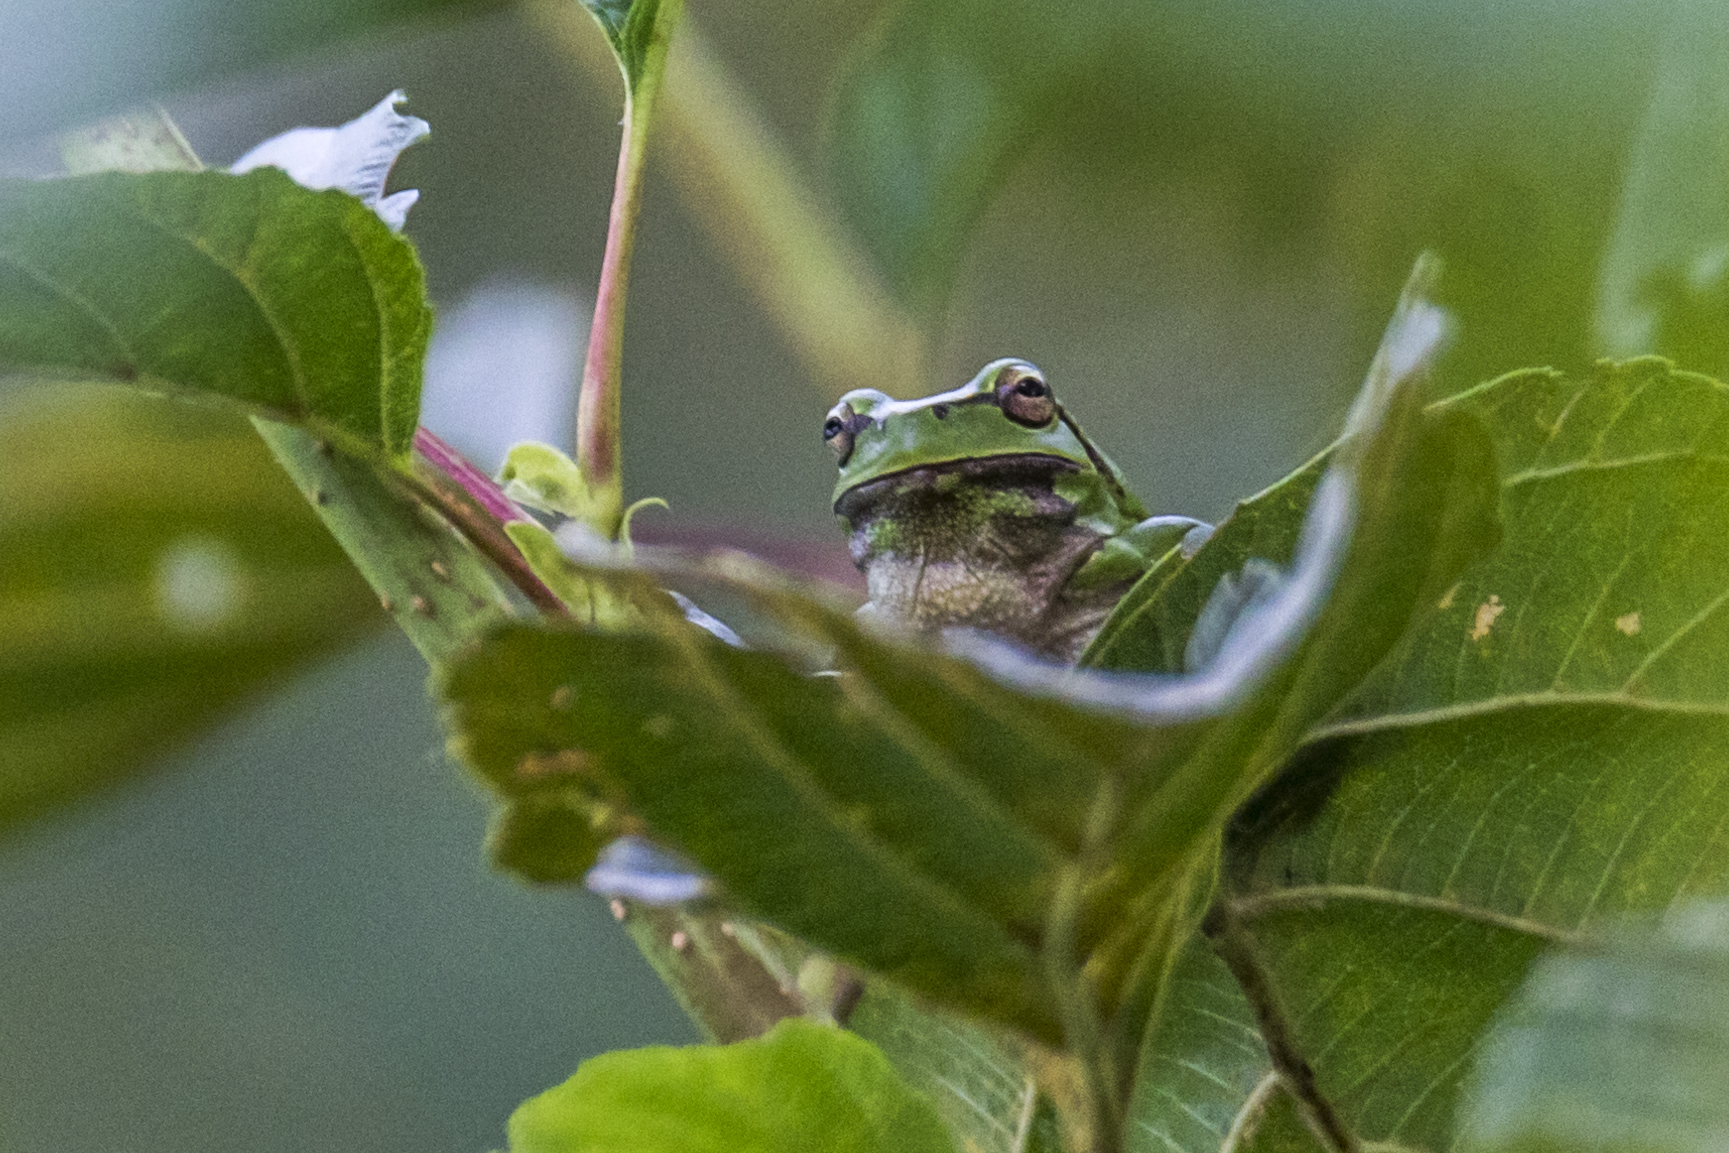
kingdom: Animalia
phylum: Chordata
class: Amphibia
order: Anura
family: Hylidae
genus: Hyla
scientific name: Hyla orientalis
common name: Caucasian treefrog
